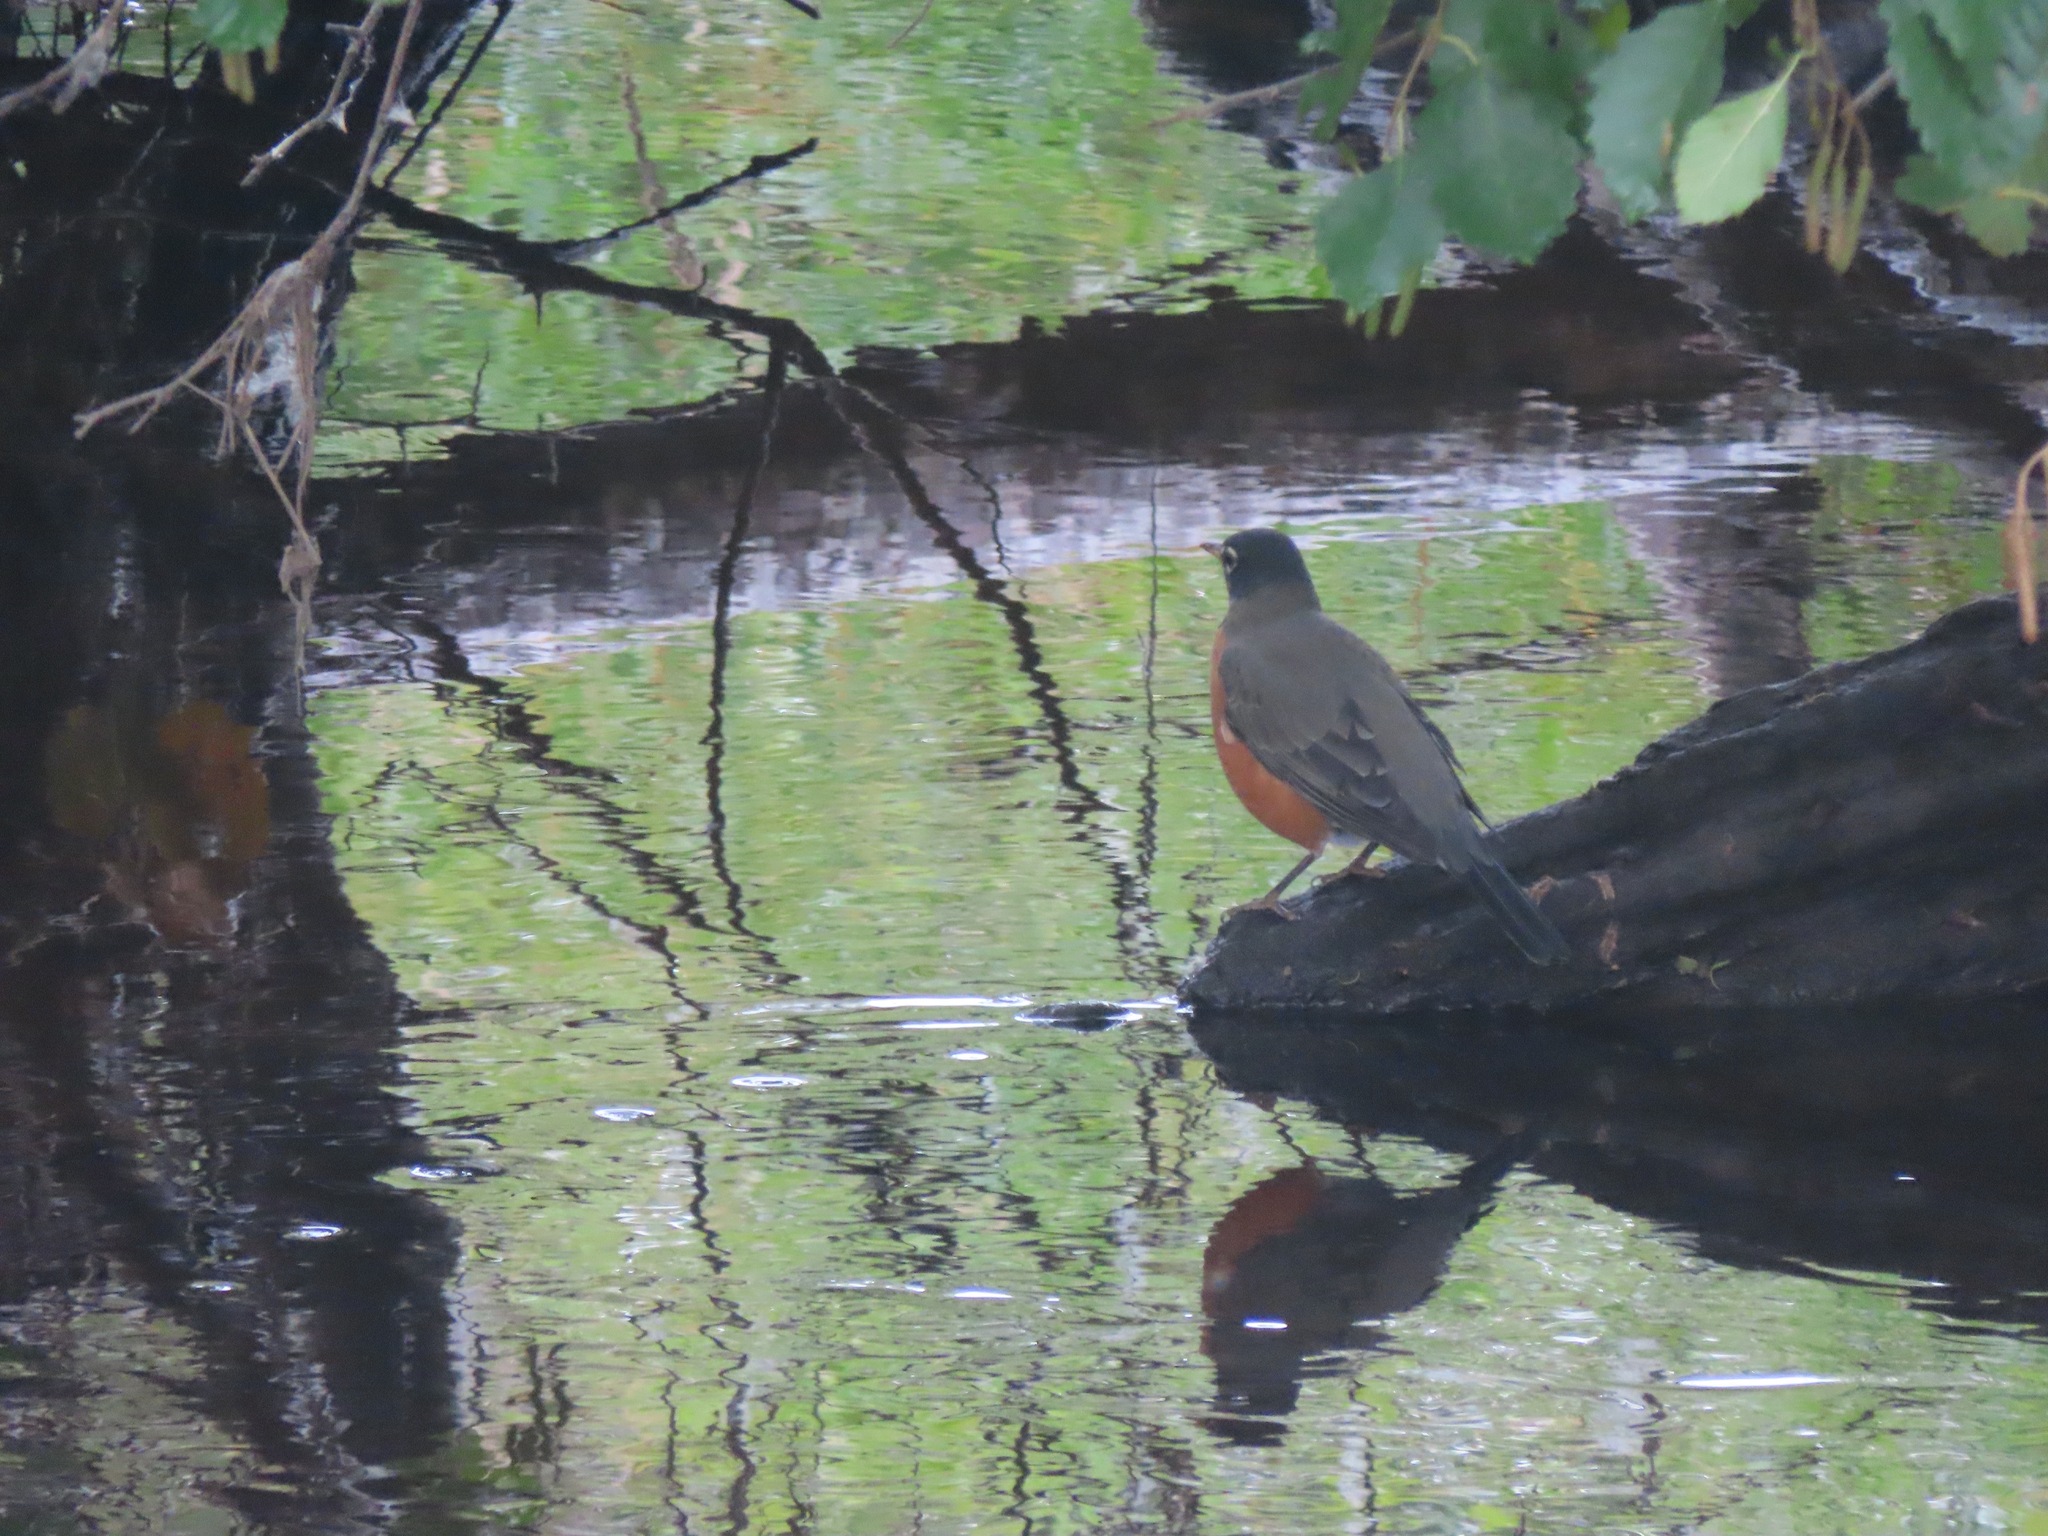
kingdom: Animalia
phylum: Chordata
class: Aves
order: Passeriformes
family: Turdidae
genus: Turdus
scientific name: Turdus migratorius
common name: American robin
